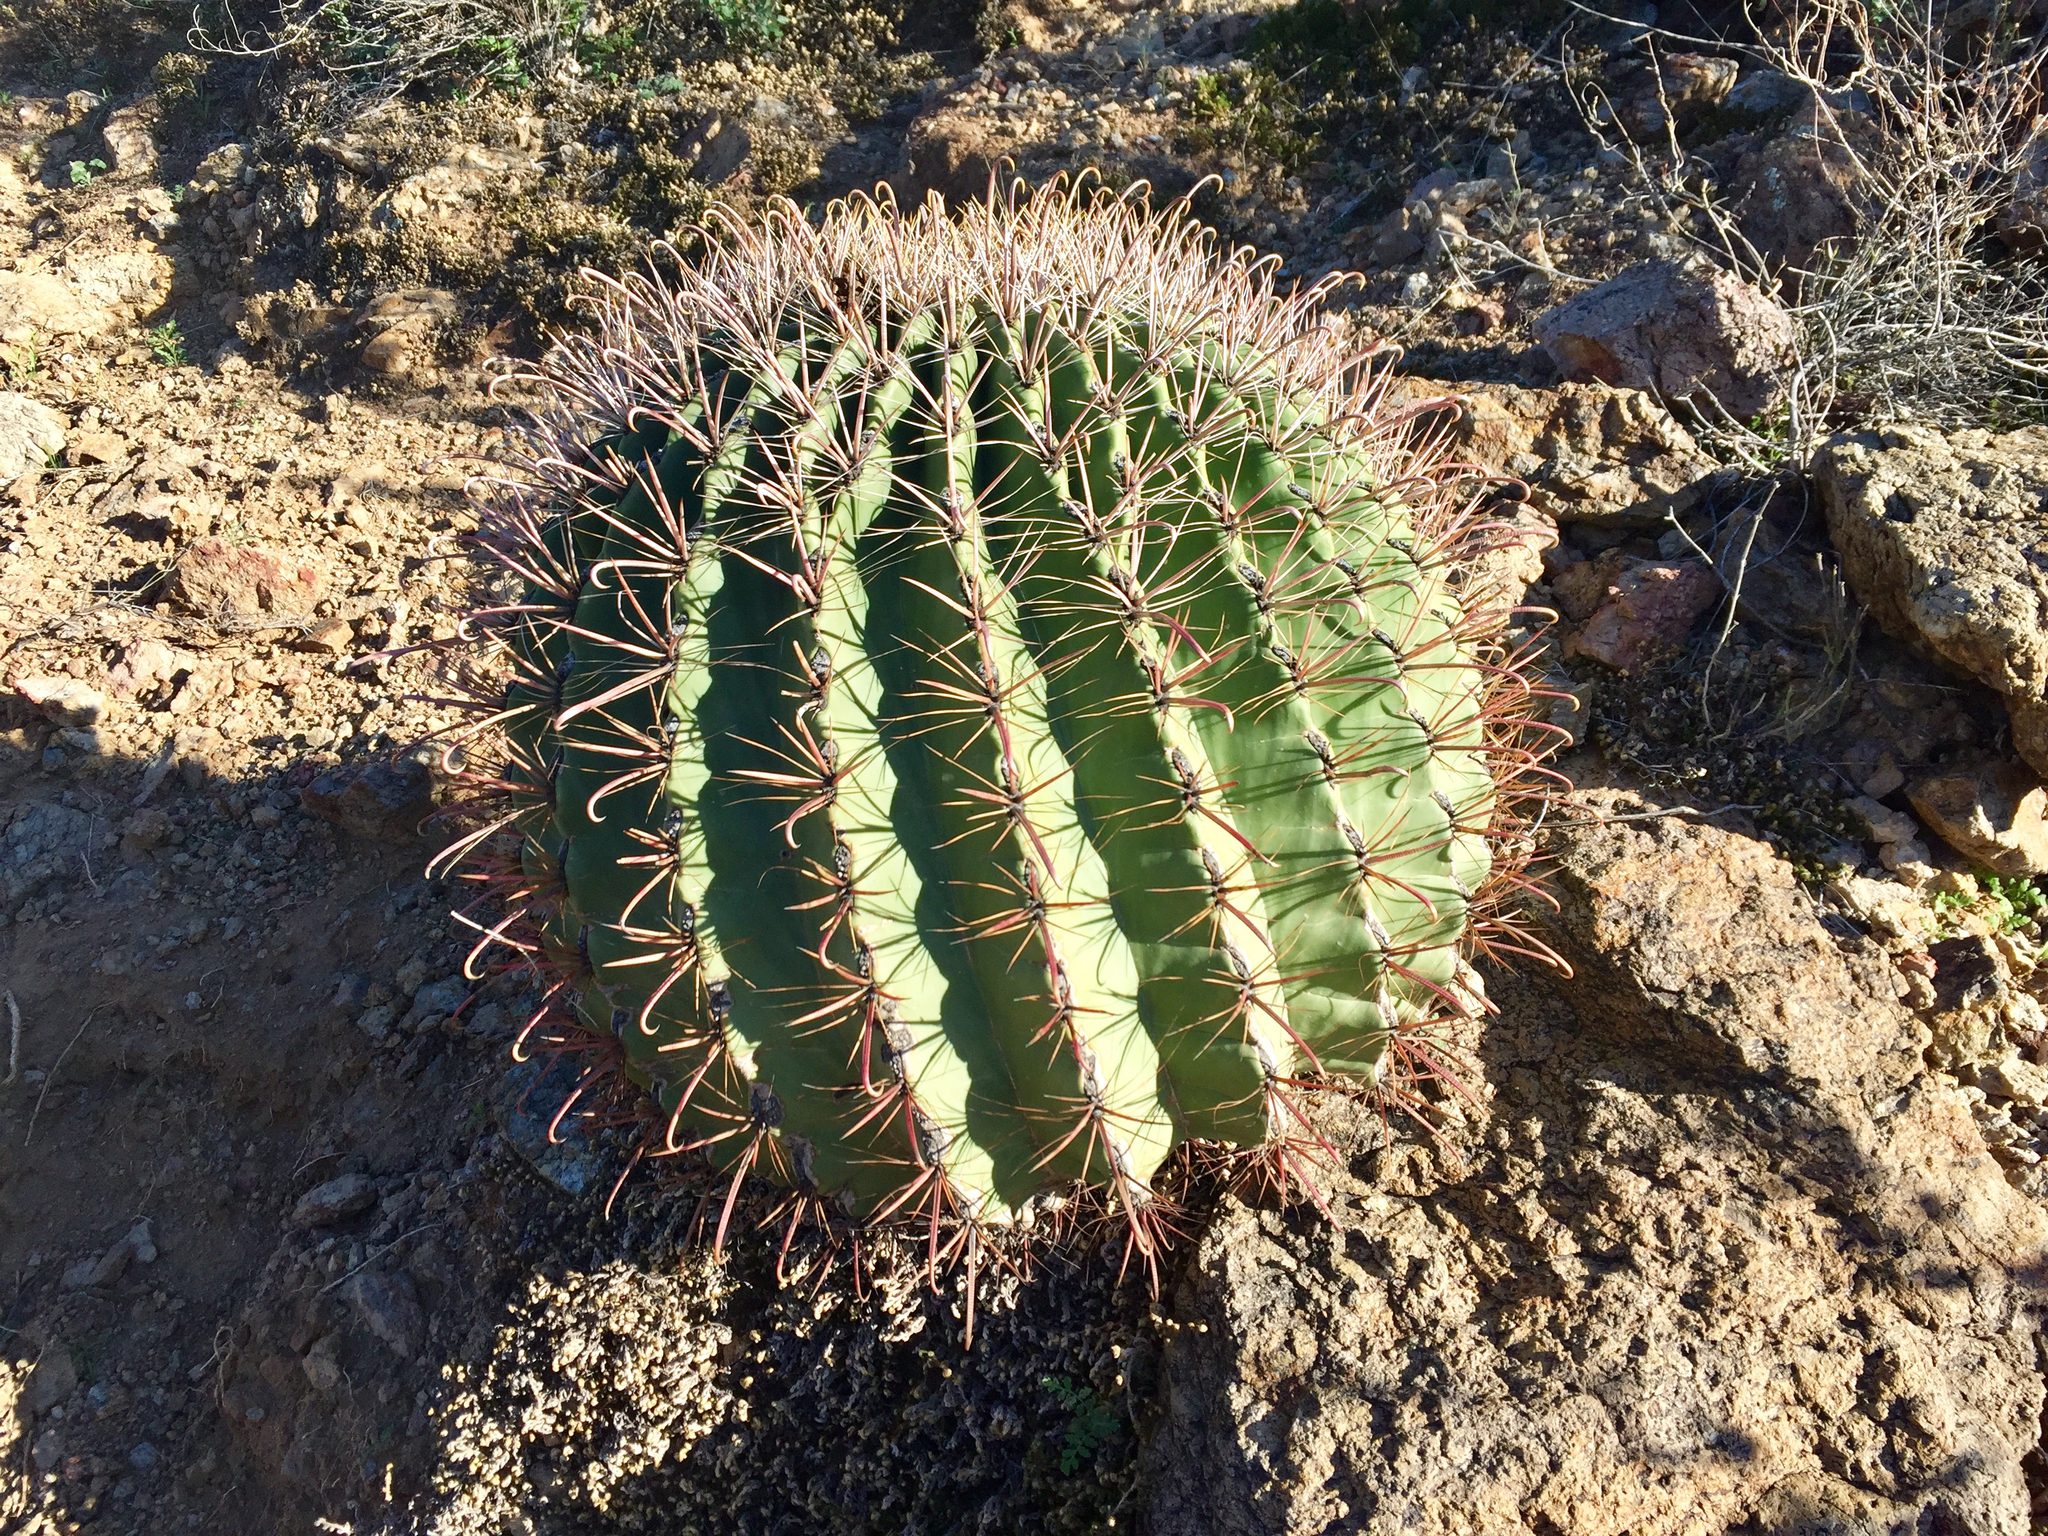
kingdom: Plantae
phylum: Tracheophyta
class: Magnoliopsida
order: Caryophyllales
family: Cactaceae
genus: Ferocactus
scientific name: Ferocactus wislizeni
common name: Candy barrel cactus
